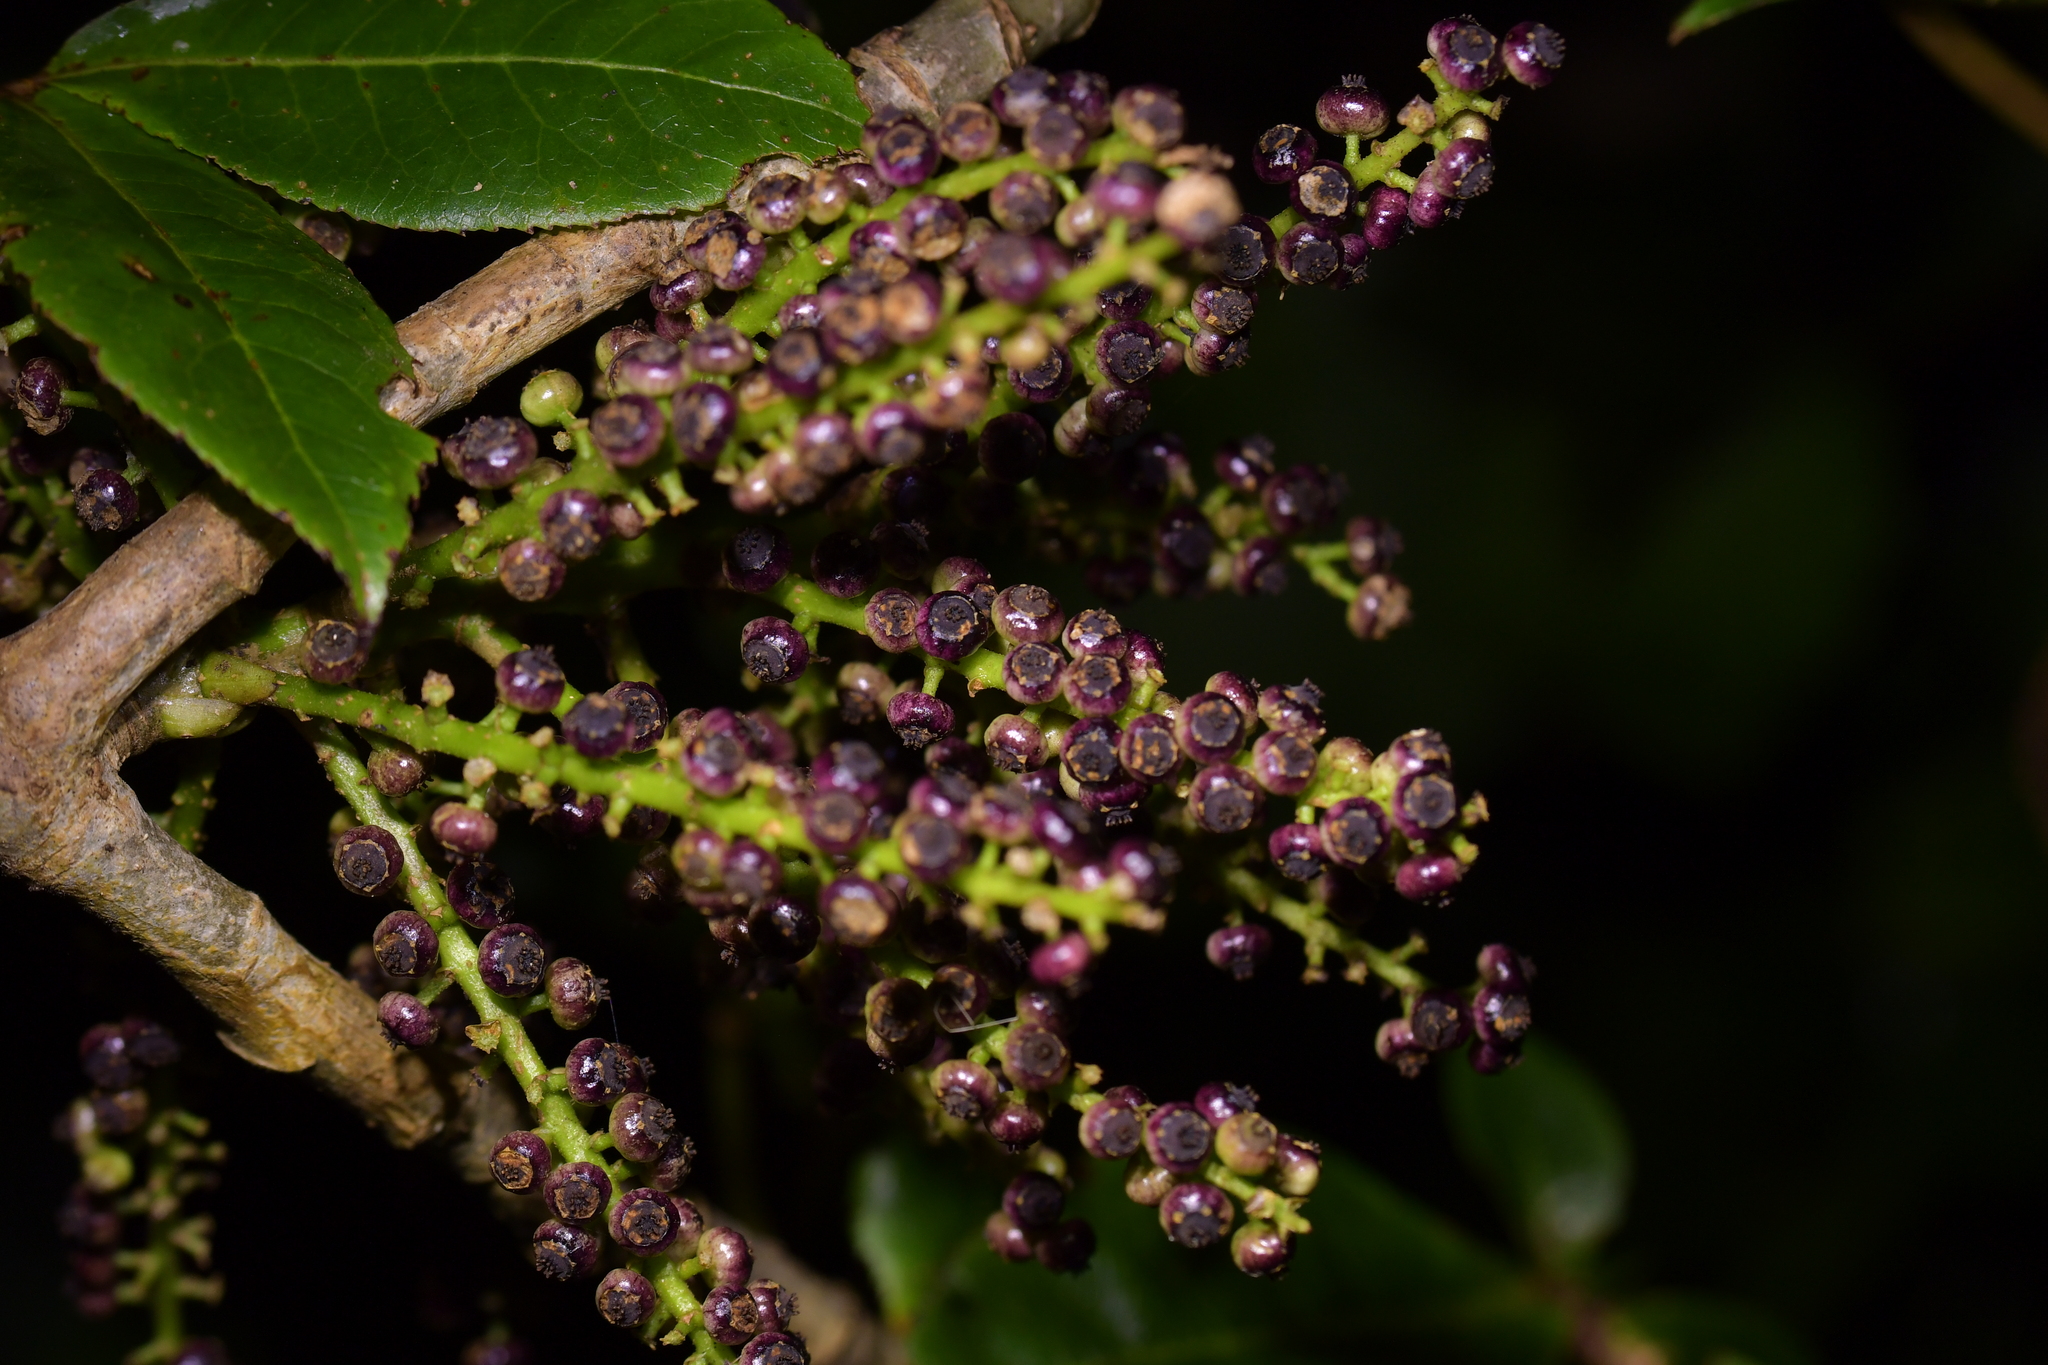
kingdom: Plantae
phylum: Tracheophyta
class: Magnoliopsida
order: Apiales
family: Araliaceae
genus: Schefflera
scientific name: Schefflera digitata
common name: Pate
